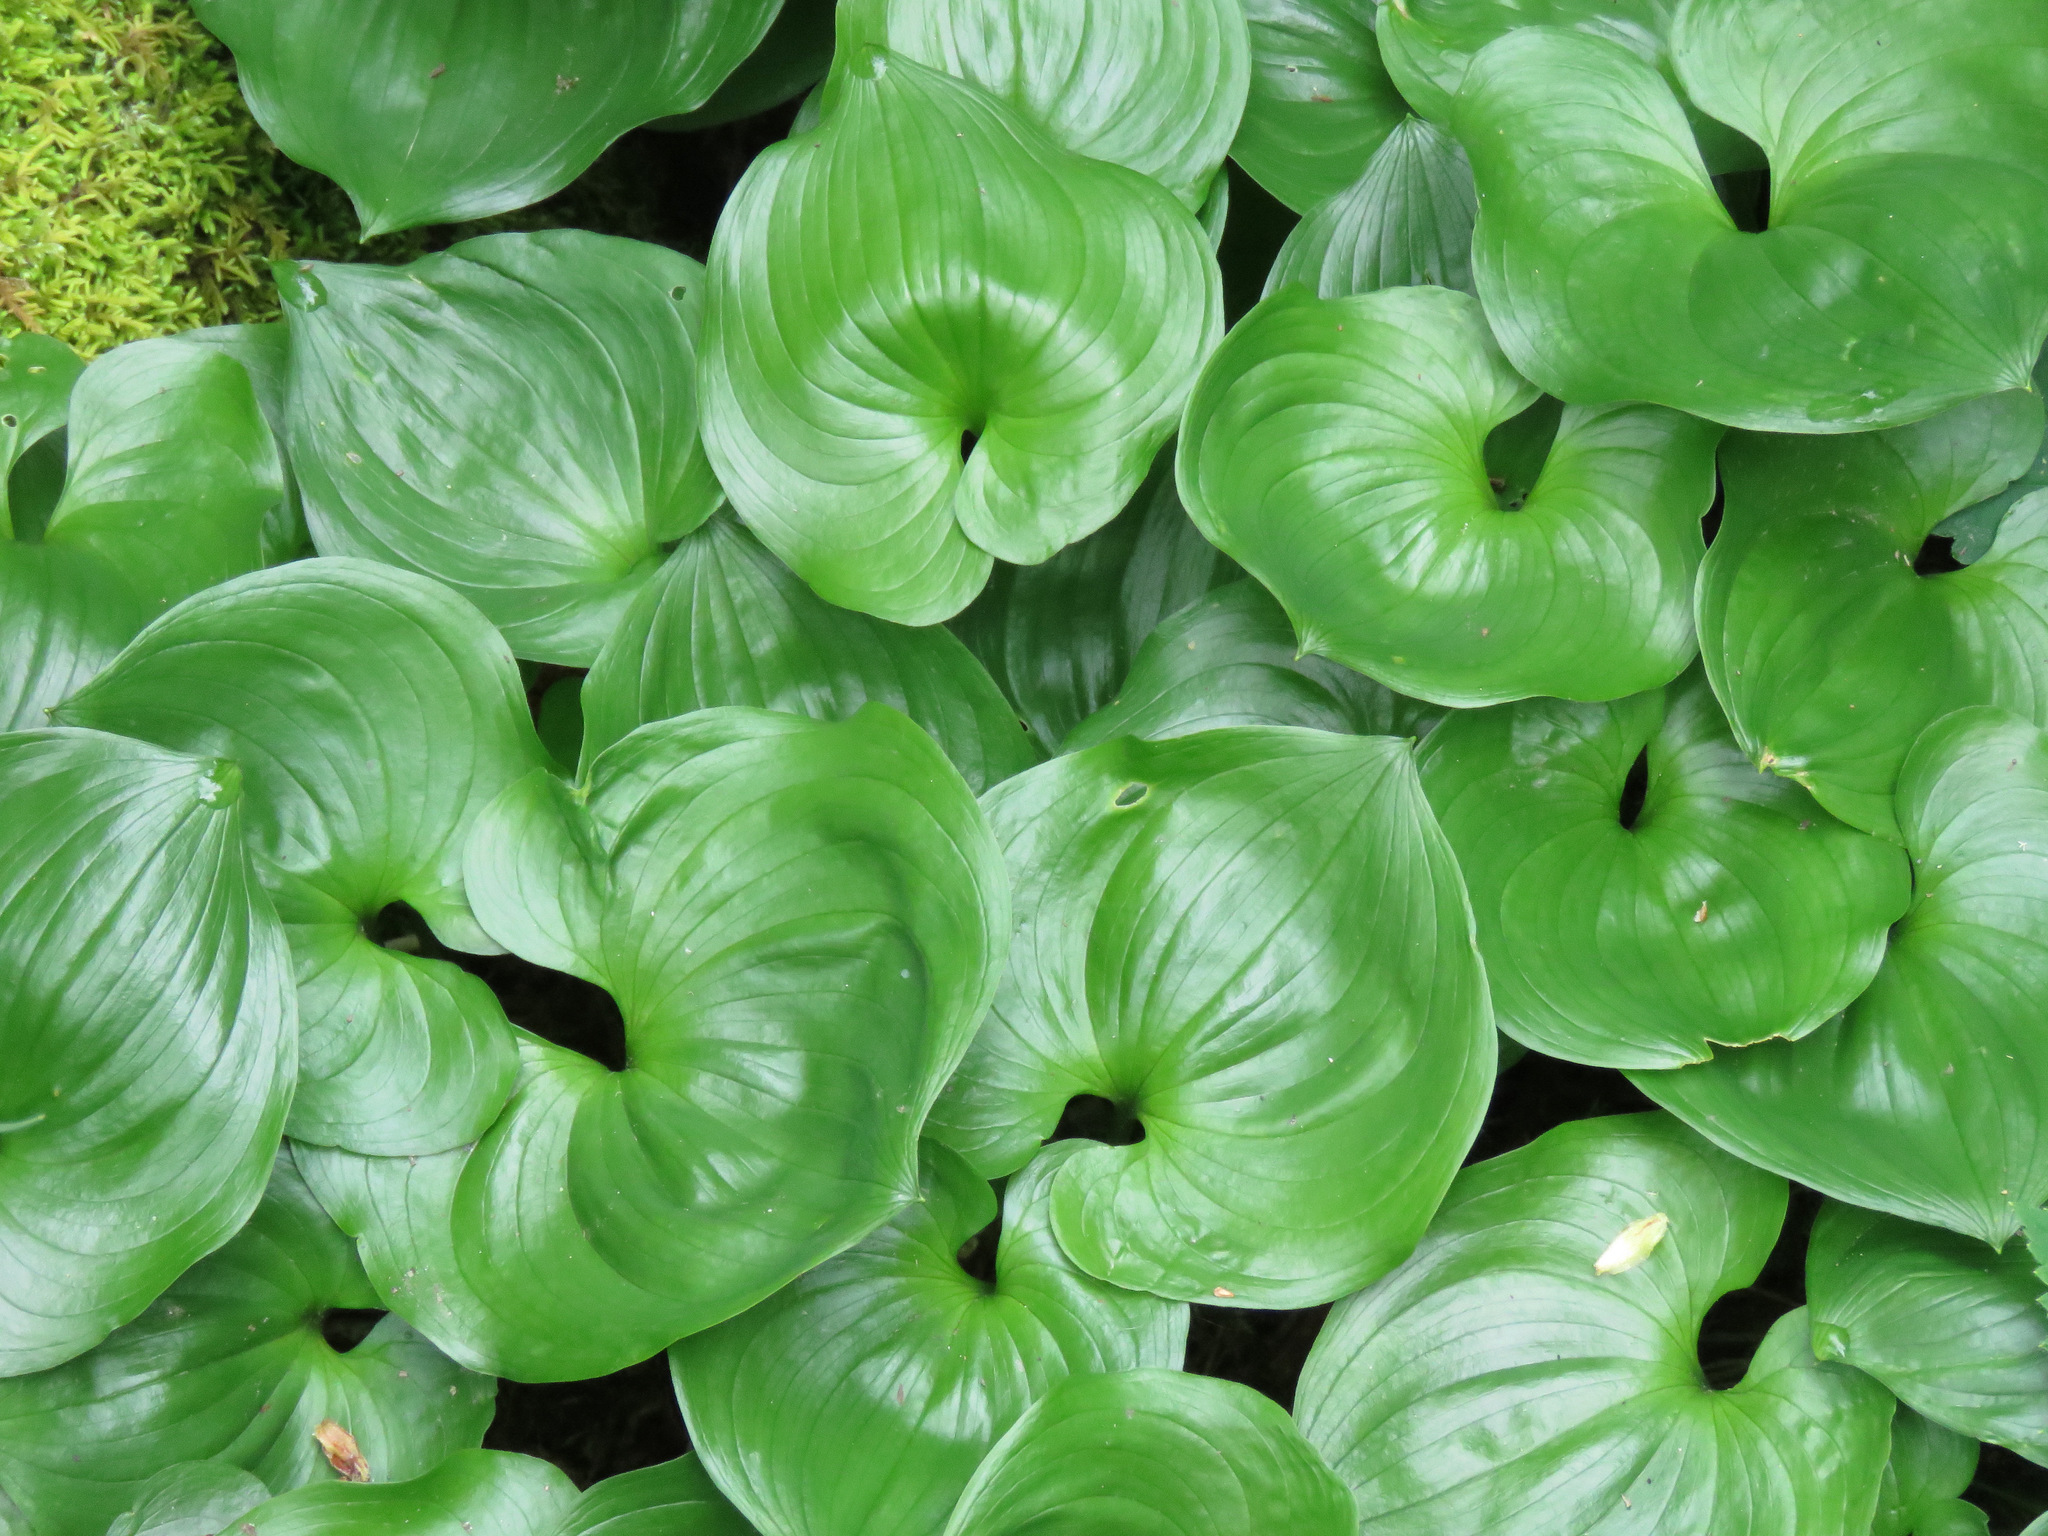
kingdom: Plantae
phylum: Tracheophyta
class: Liliopsida
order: Asparagales
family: Asparagaceae
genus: Maianthemum
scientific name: Maianthemum dilatatum
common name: False lily-of-the-valley
